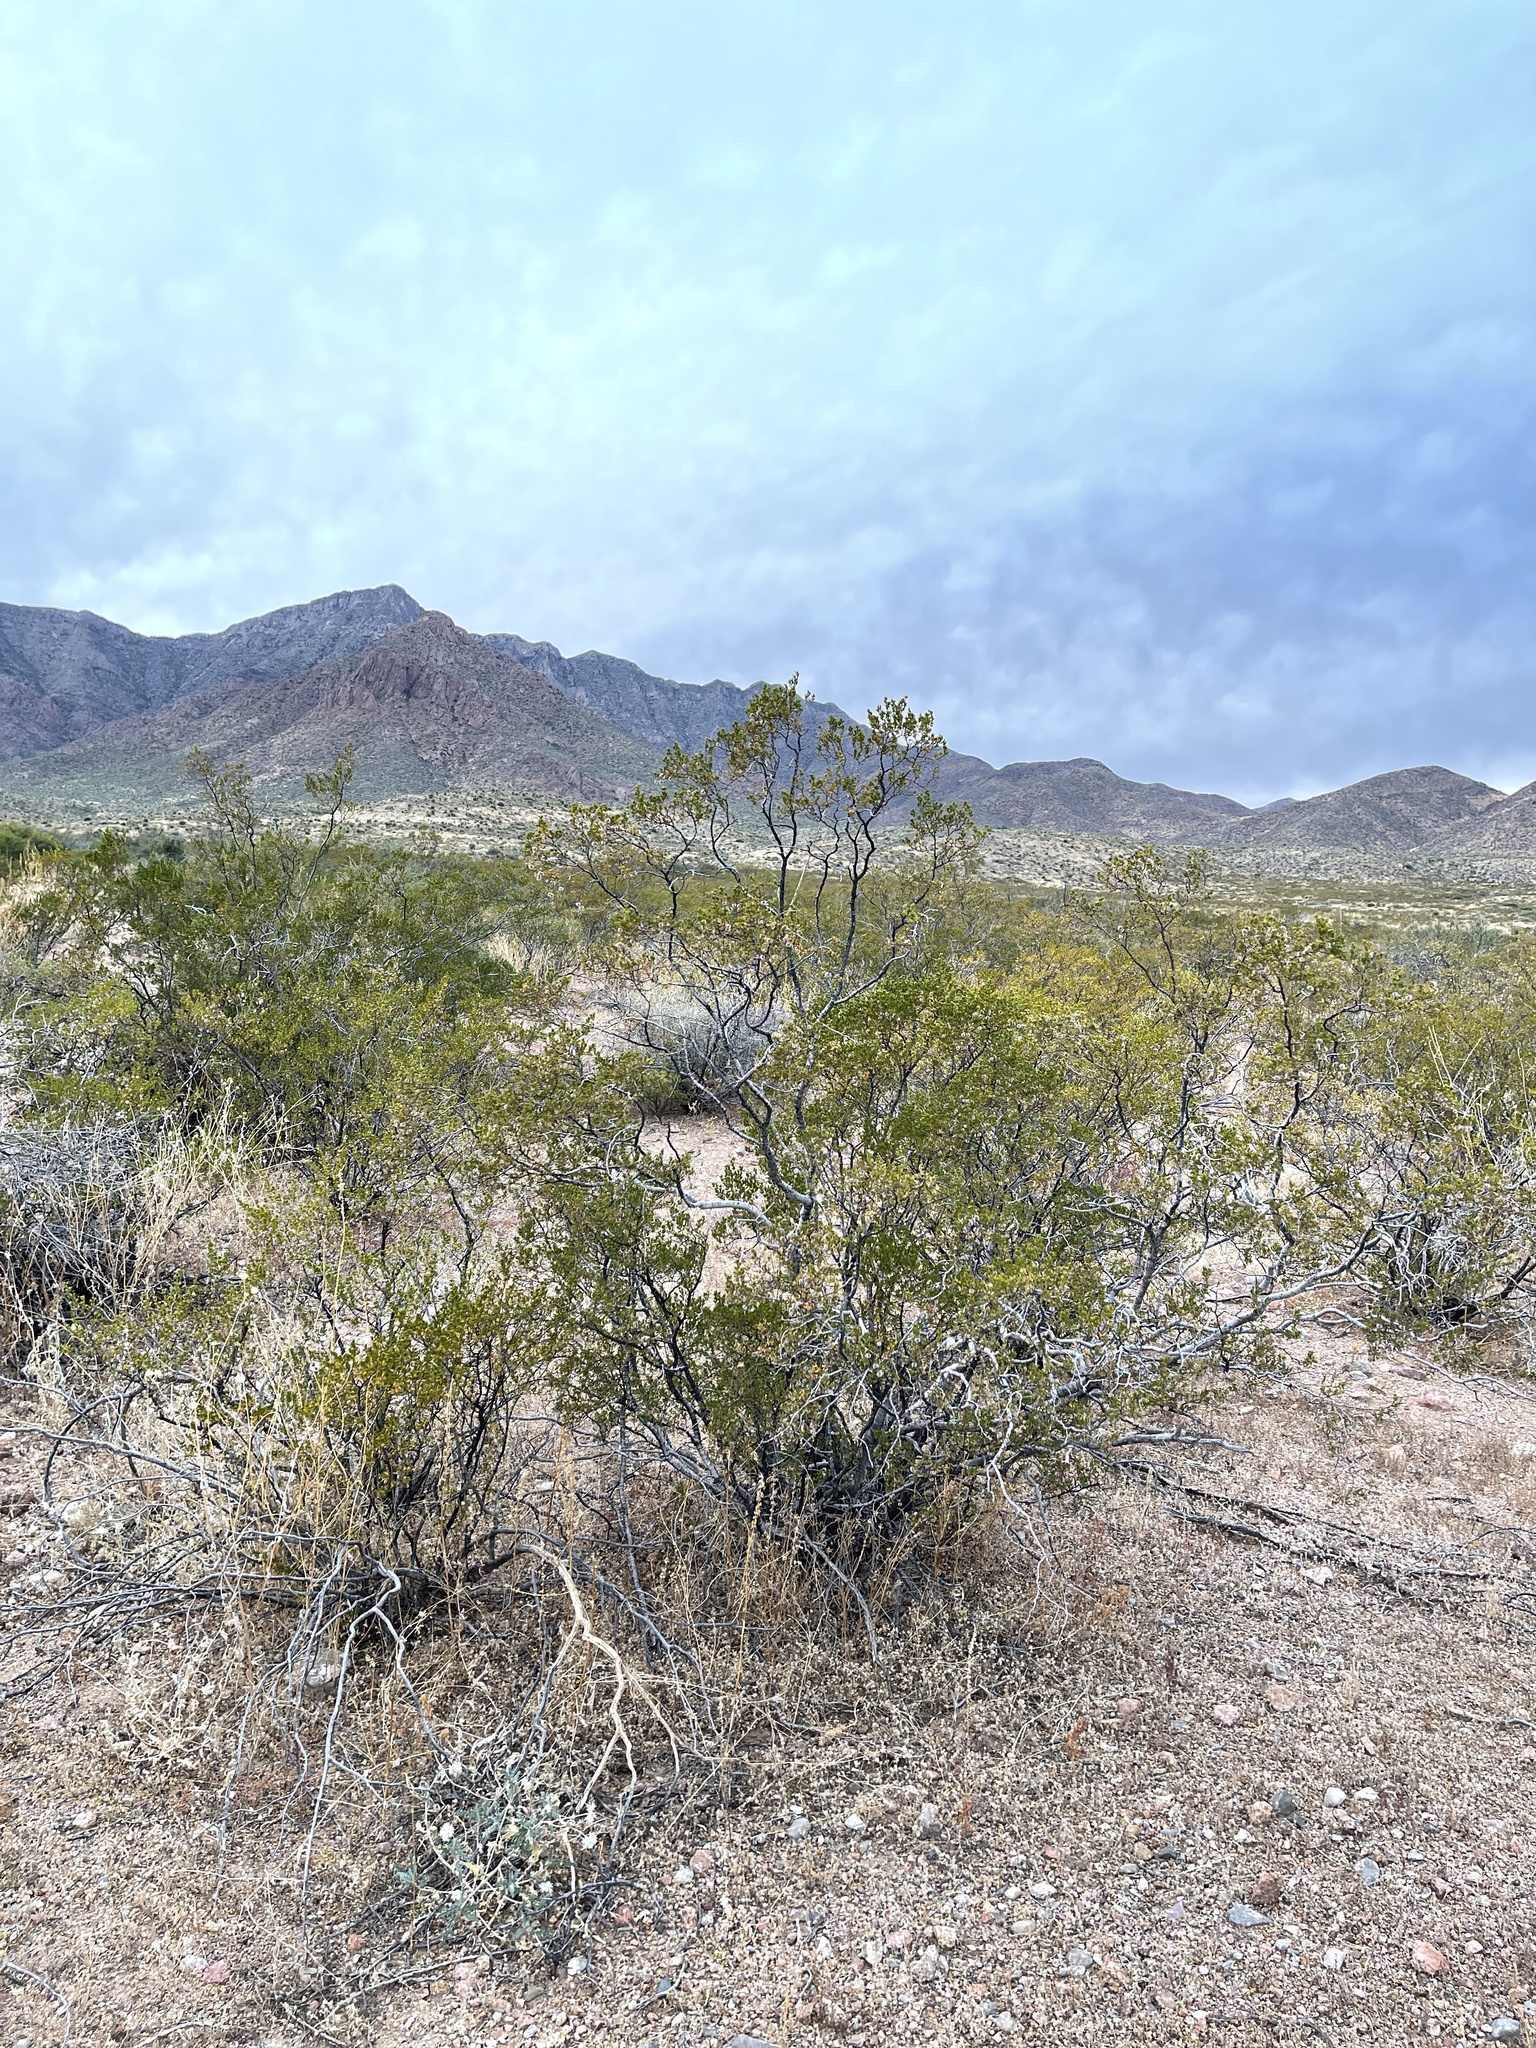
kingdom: Plantae
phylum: Tracheophyta
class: Magnoliopsida
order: Zygophyllales
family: Zygophyllaceae
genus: Larrea
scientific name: Larrea tridentata
